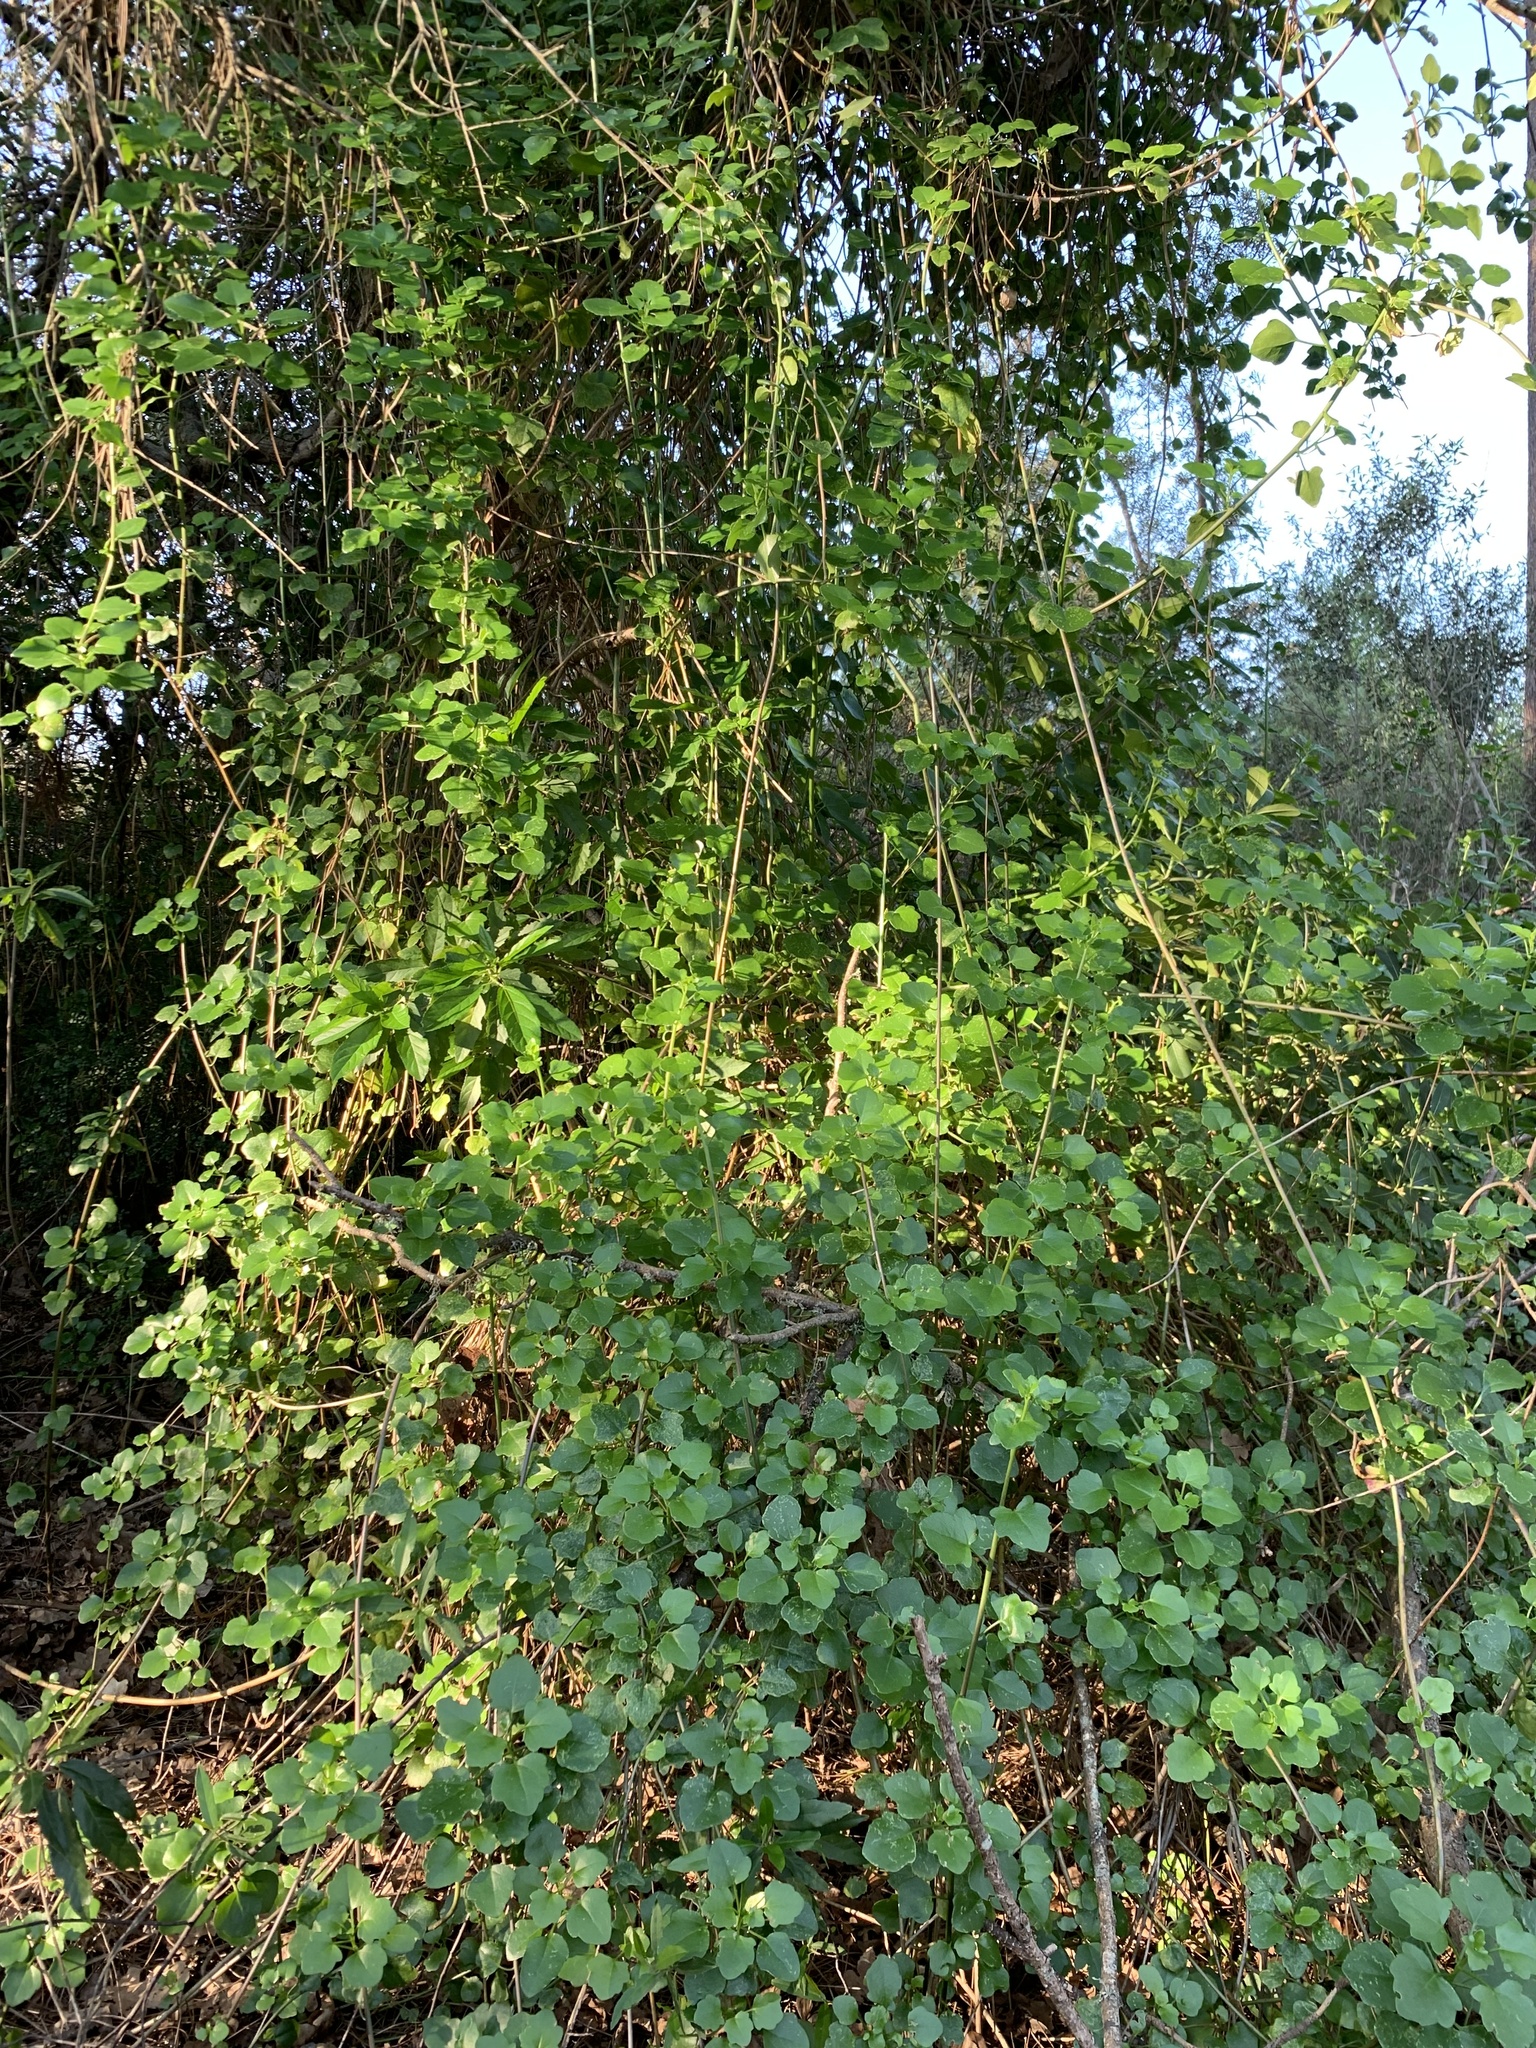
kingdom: Plantae
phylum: Tracheophyta
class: Magnoliopsida
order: Asterales
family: Asteraceae
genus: Senecio
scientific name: Senecio angulatus
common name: Climbing groundsel
